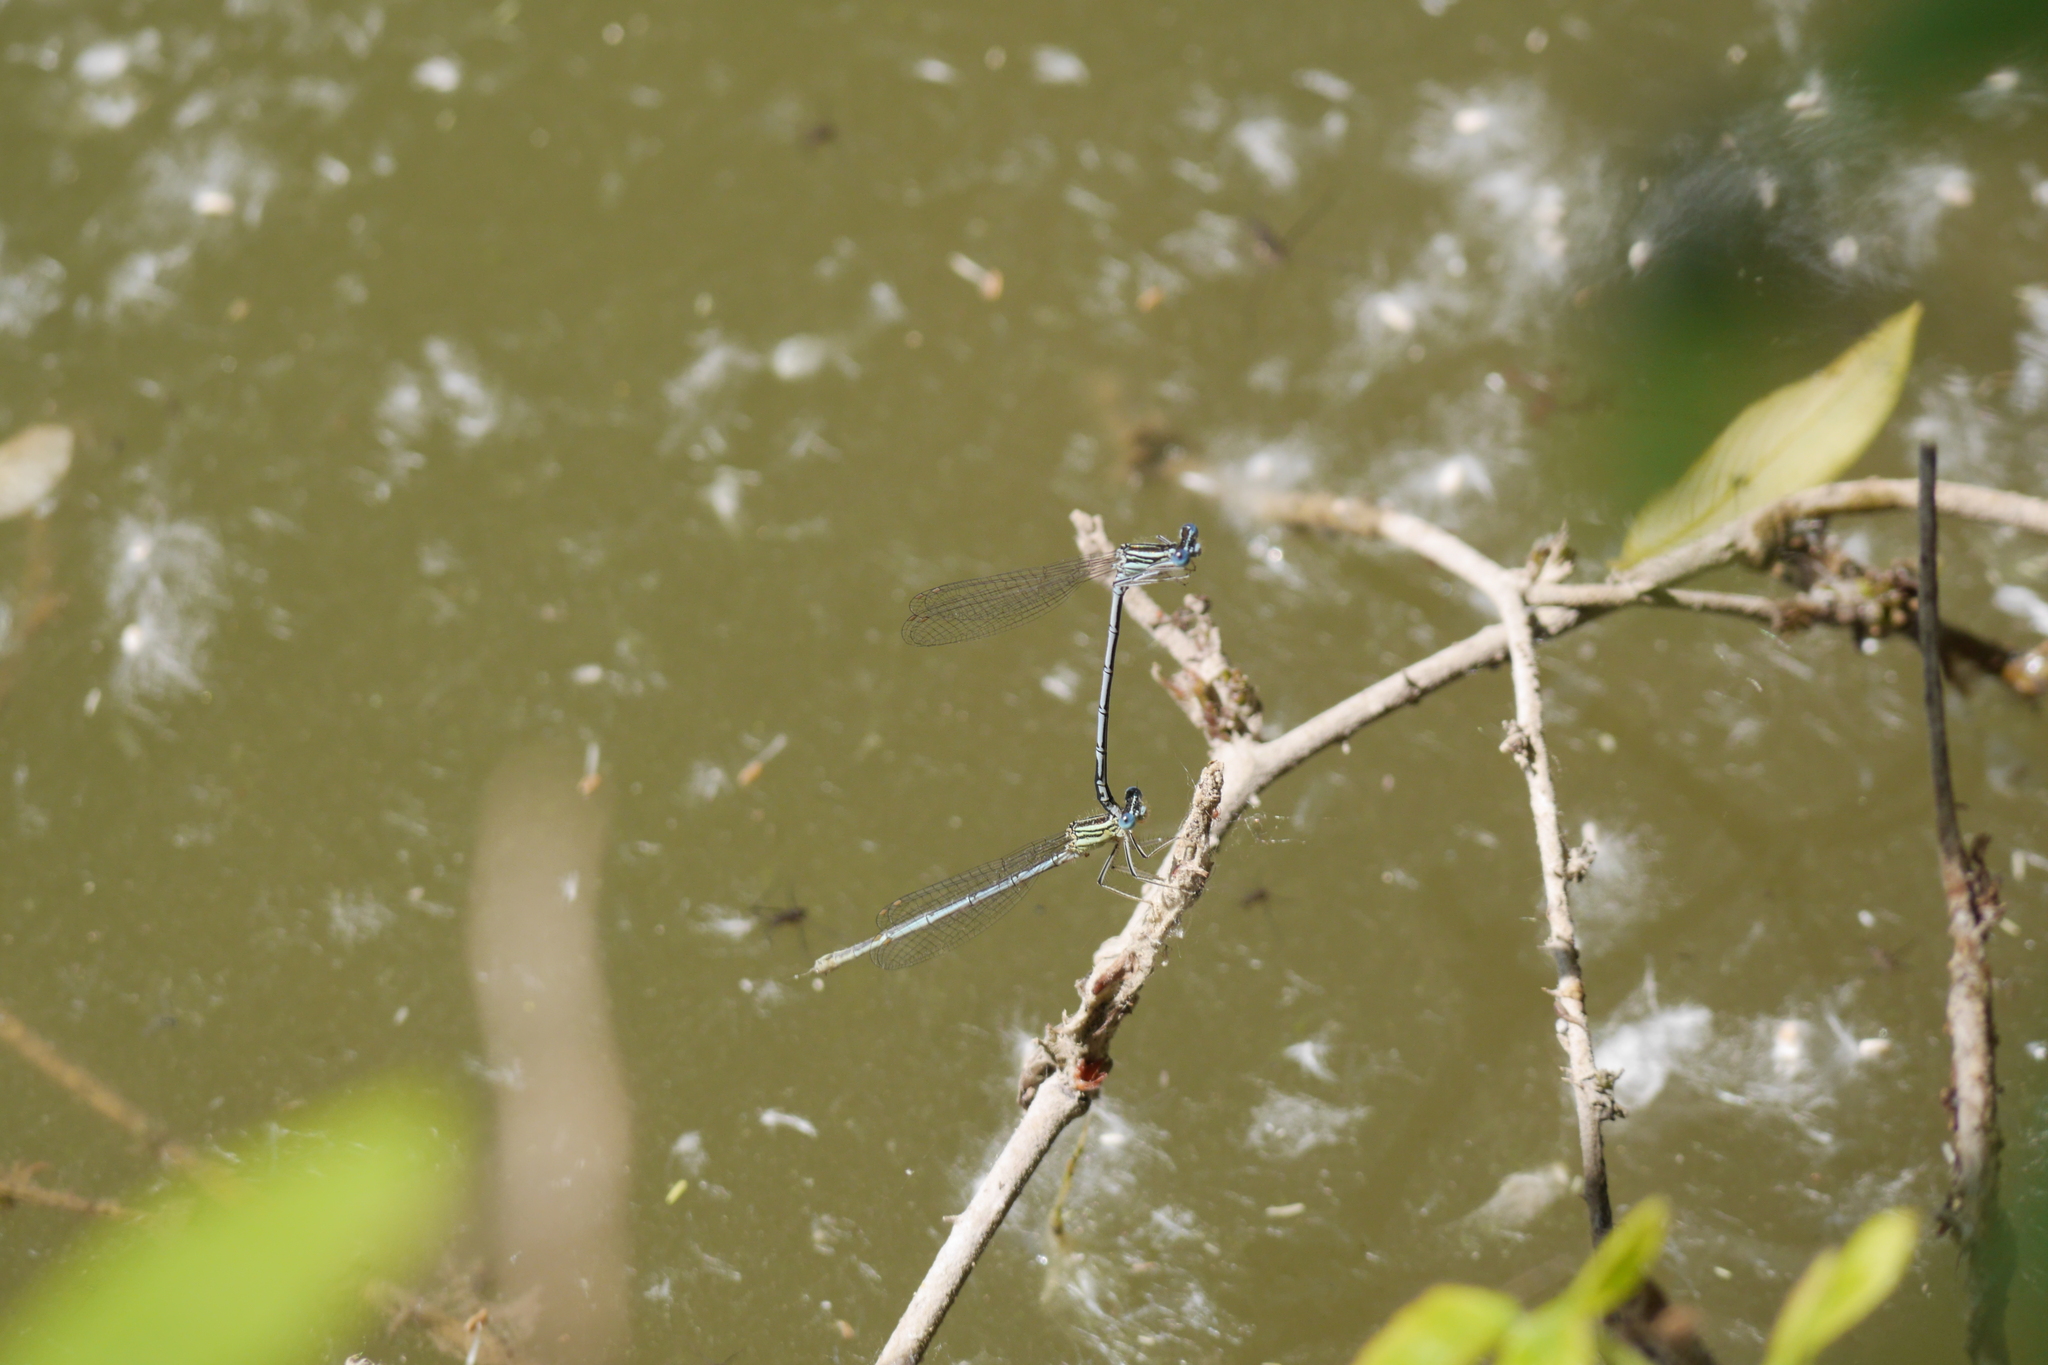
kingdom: Animalia
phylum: Arthropoda
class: Insecta
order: Odonata
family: Platycnemididae
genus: Platycnemis
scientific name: Platycnemis pennipes
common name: White-legged damselfly
